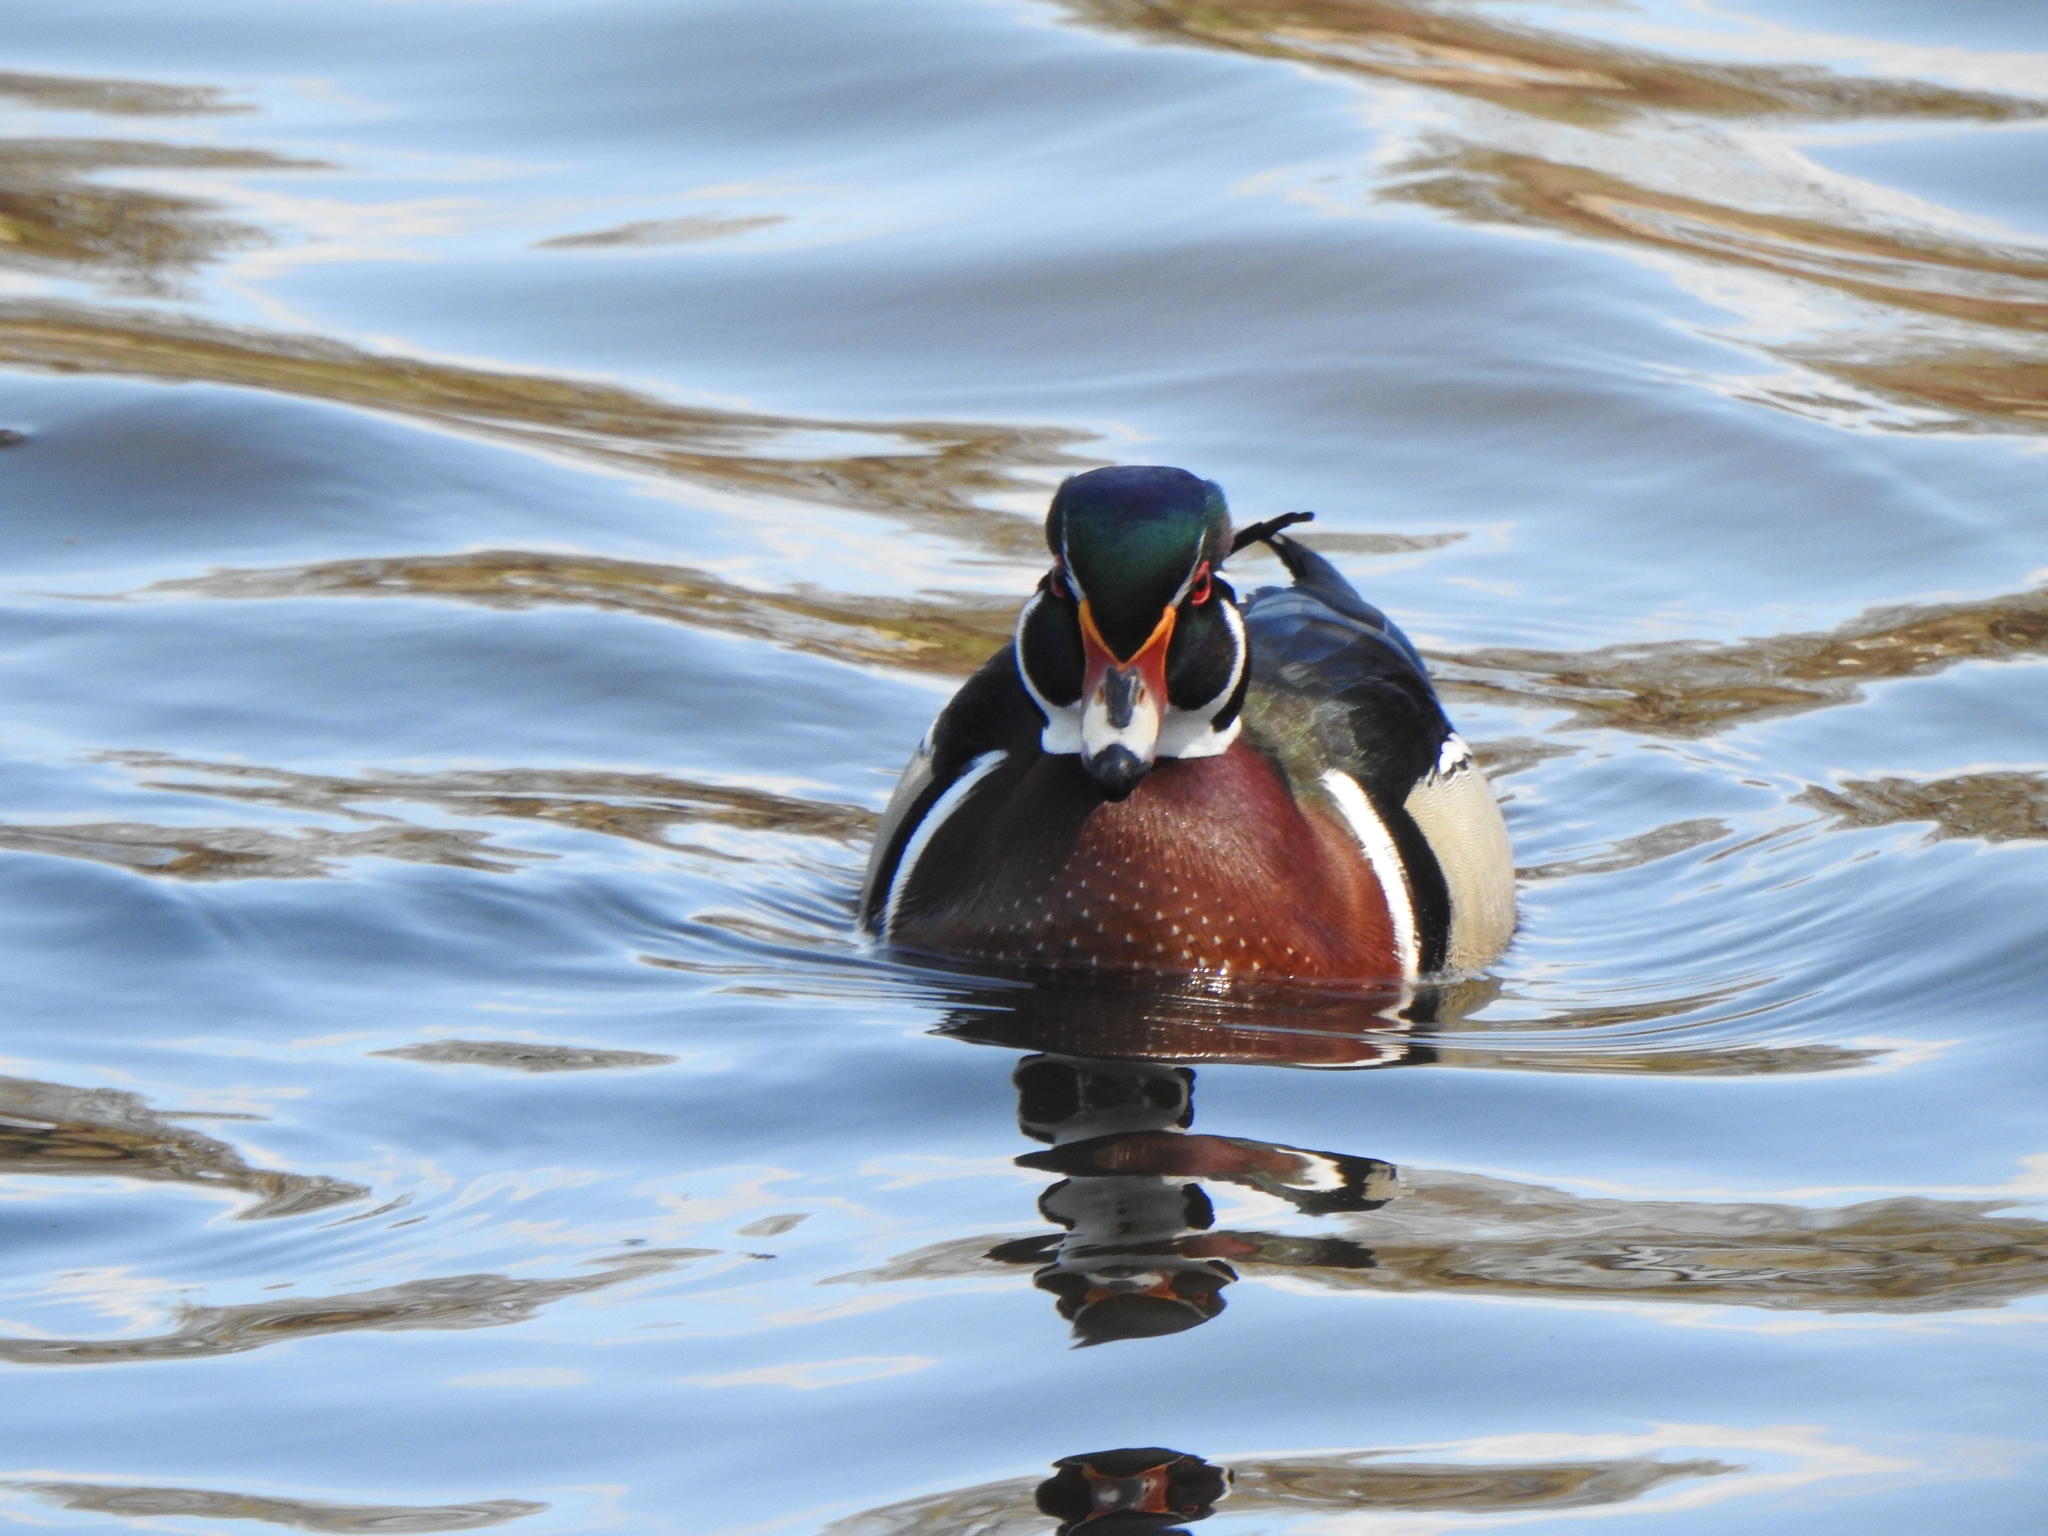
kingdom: Animalia
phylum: Chordata
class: Aves
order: Anseriformes
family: Anatidae
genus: Aix
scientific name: Aix sponsa
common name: Wood duck
